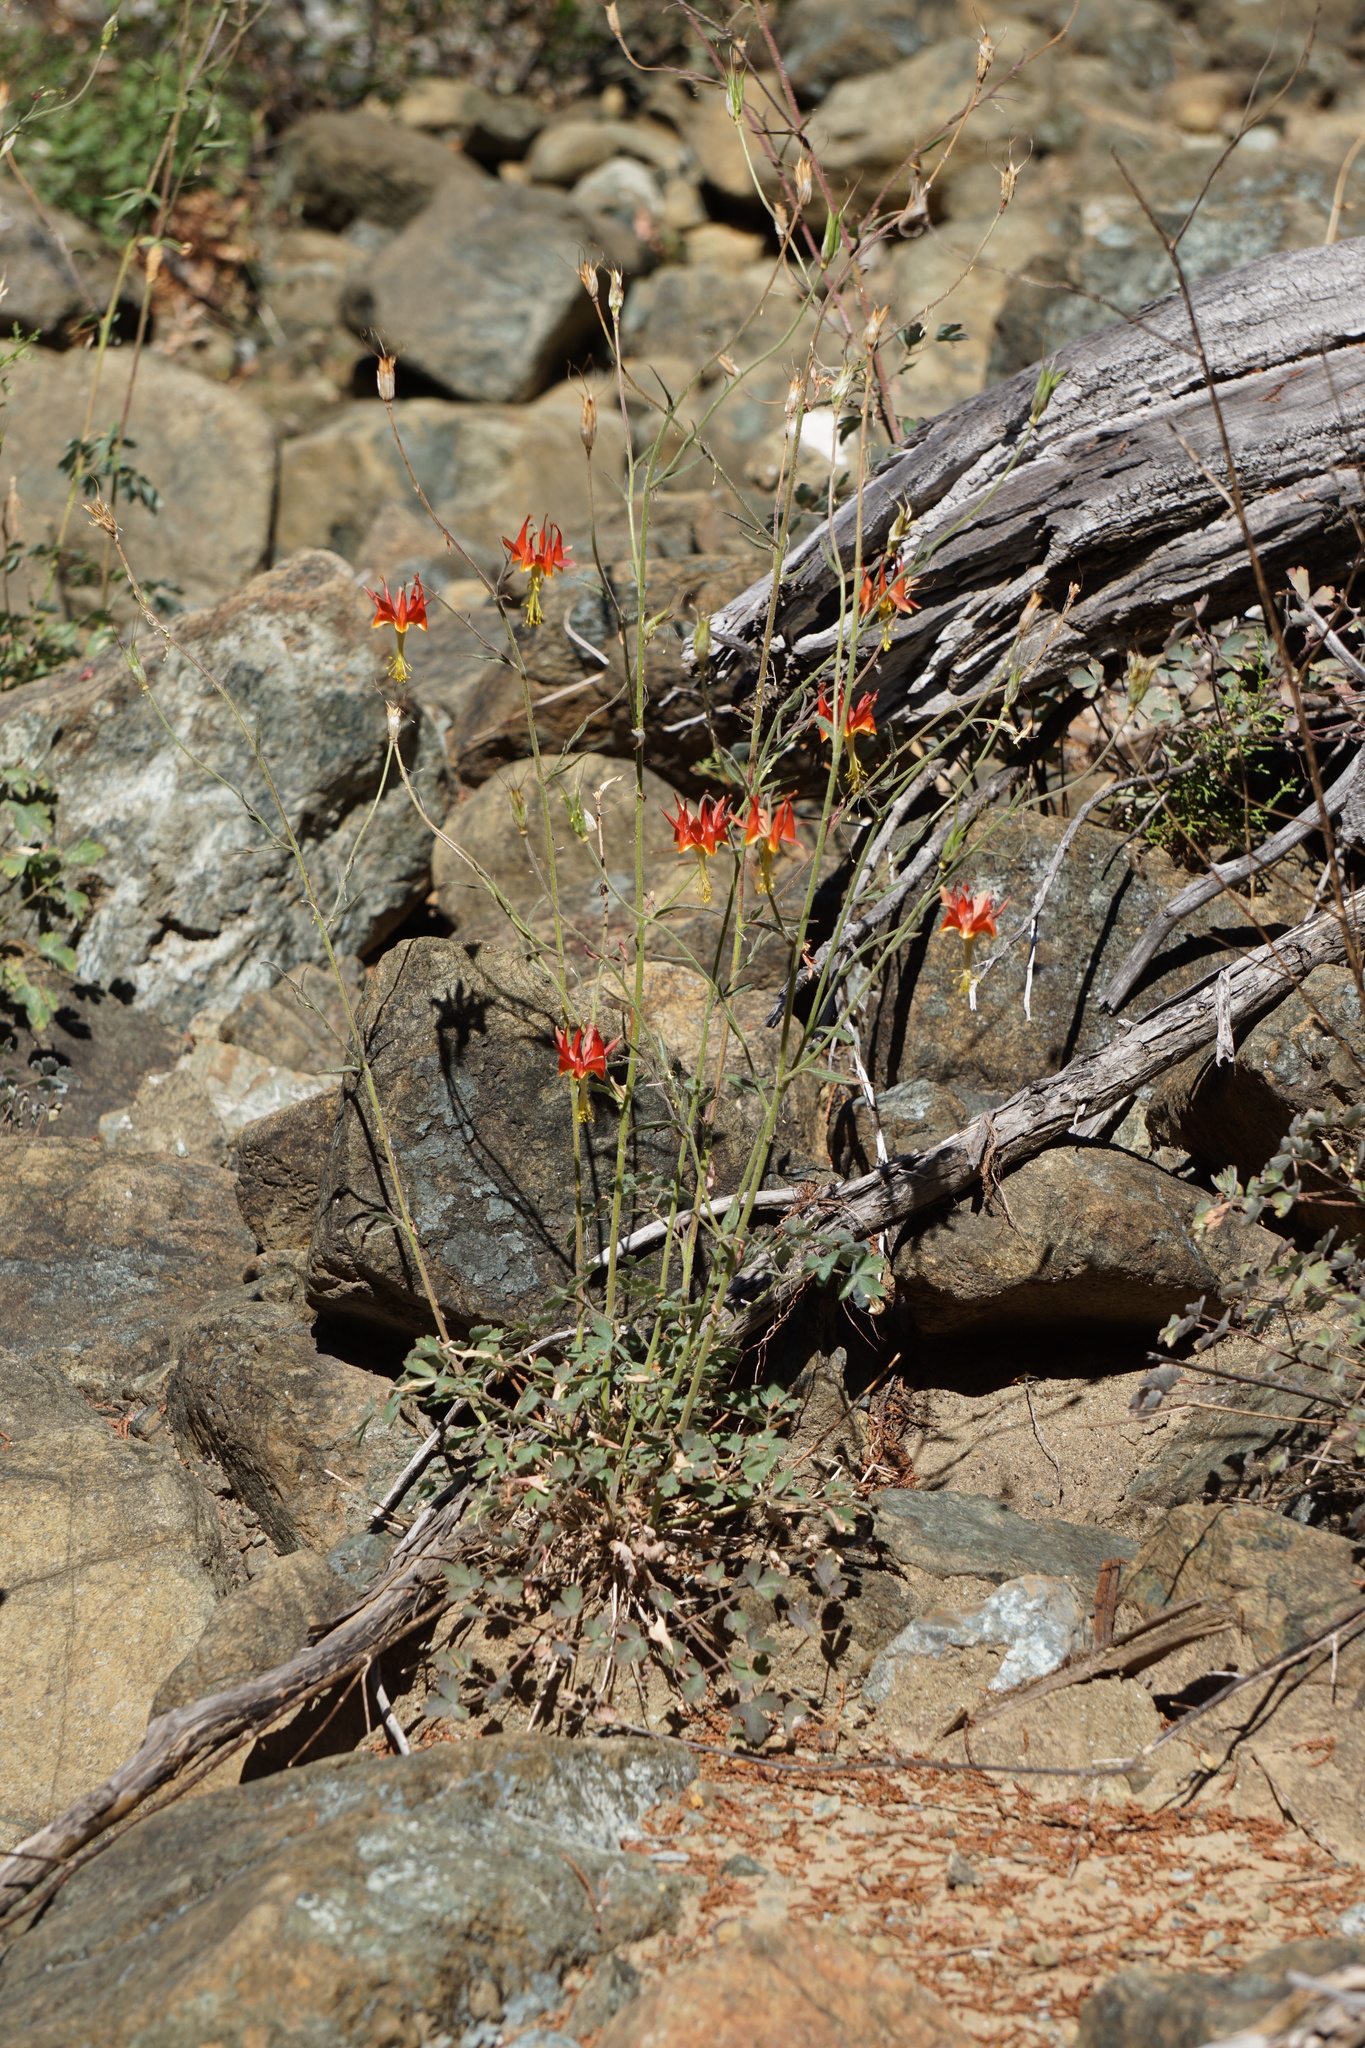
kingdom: Plantae
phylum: Tracheophyta
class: Magnoliopsida
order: Ranunculales
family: Ranunculaceae
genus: Aquilegia
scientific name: Aquilegia eximia
